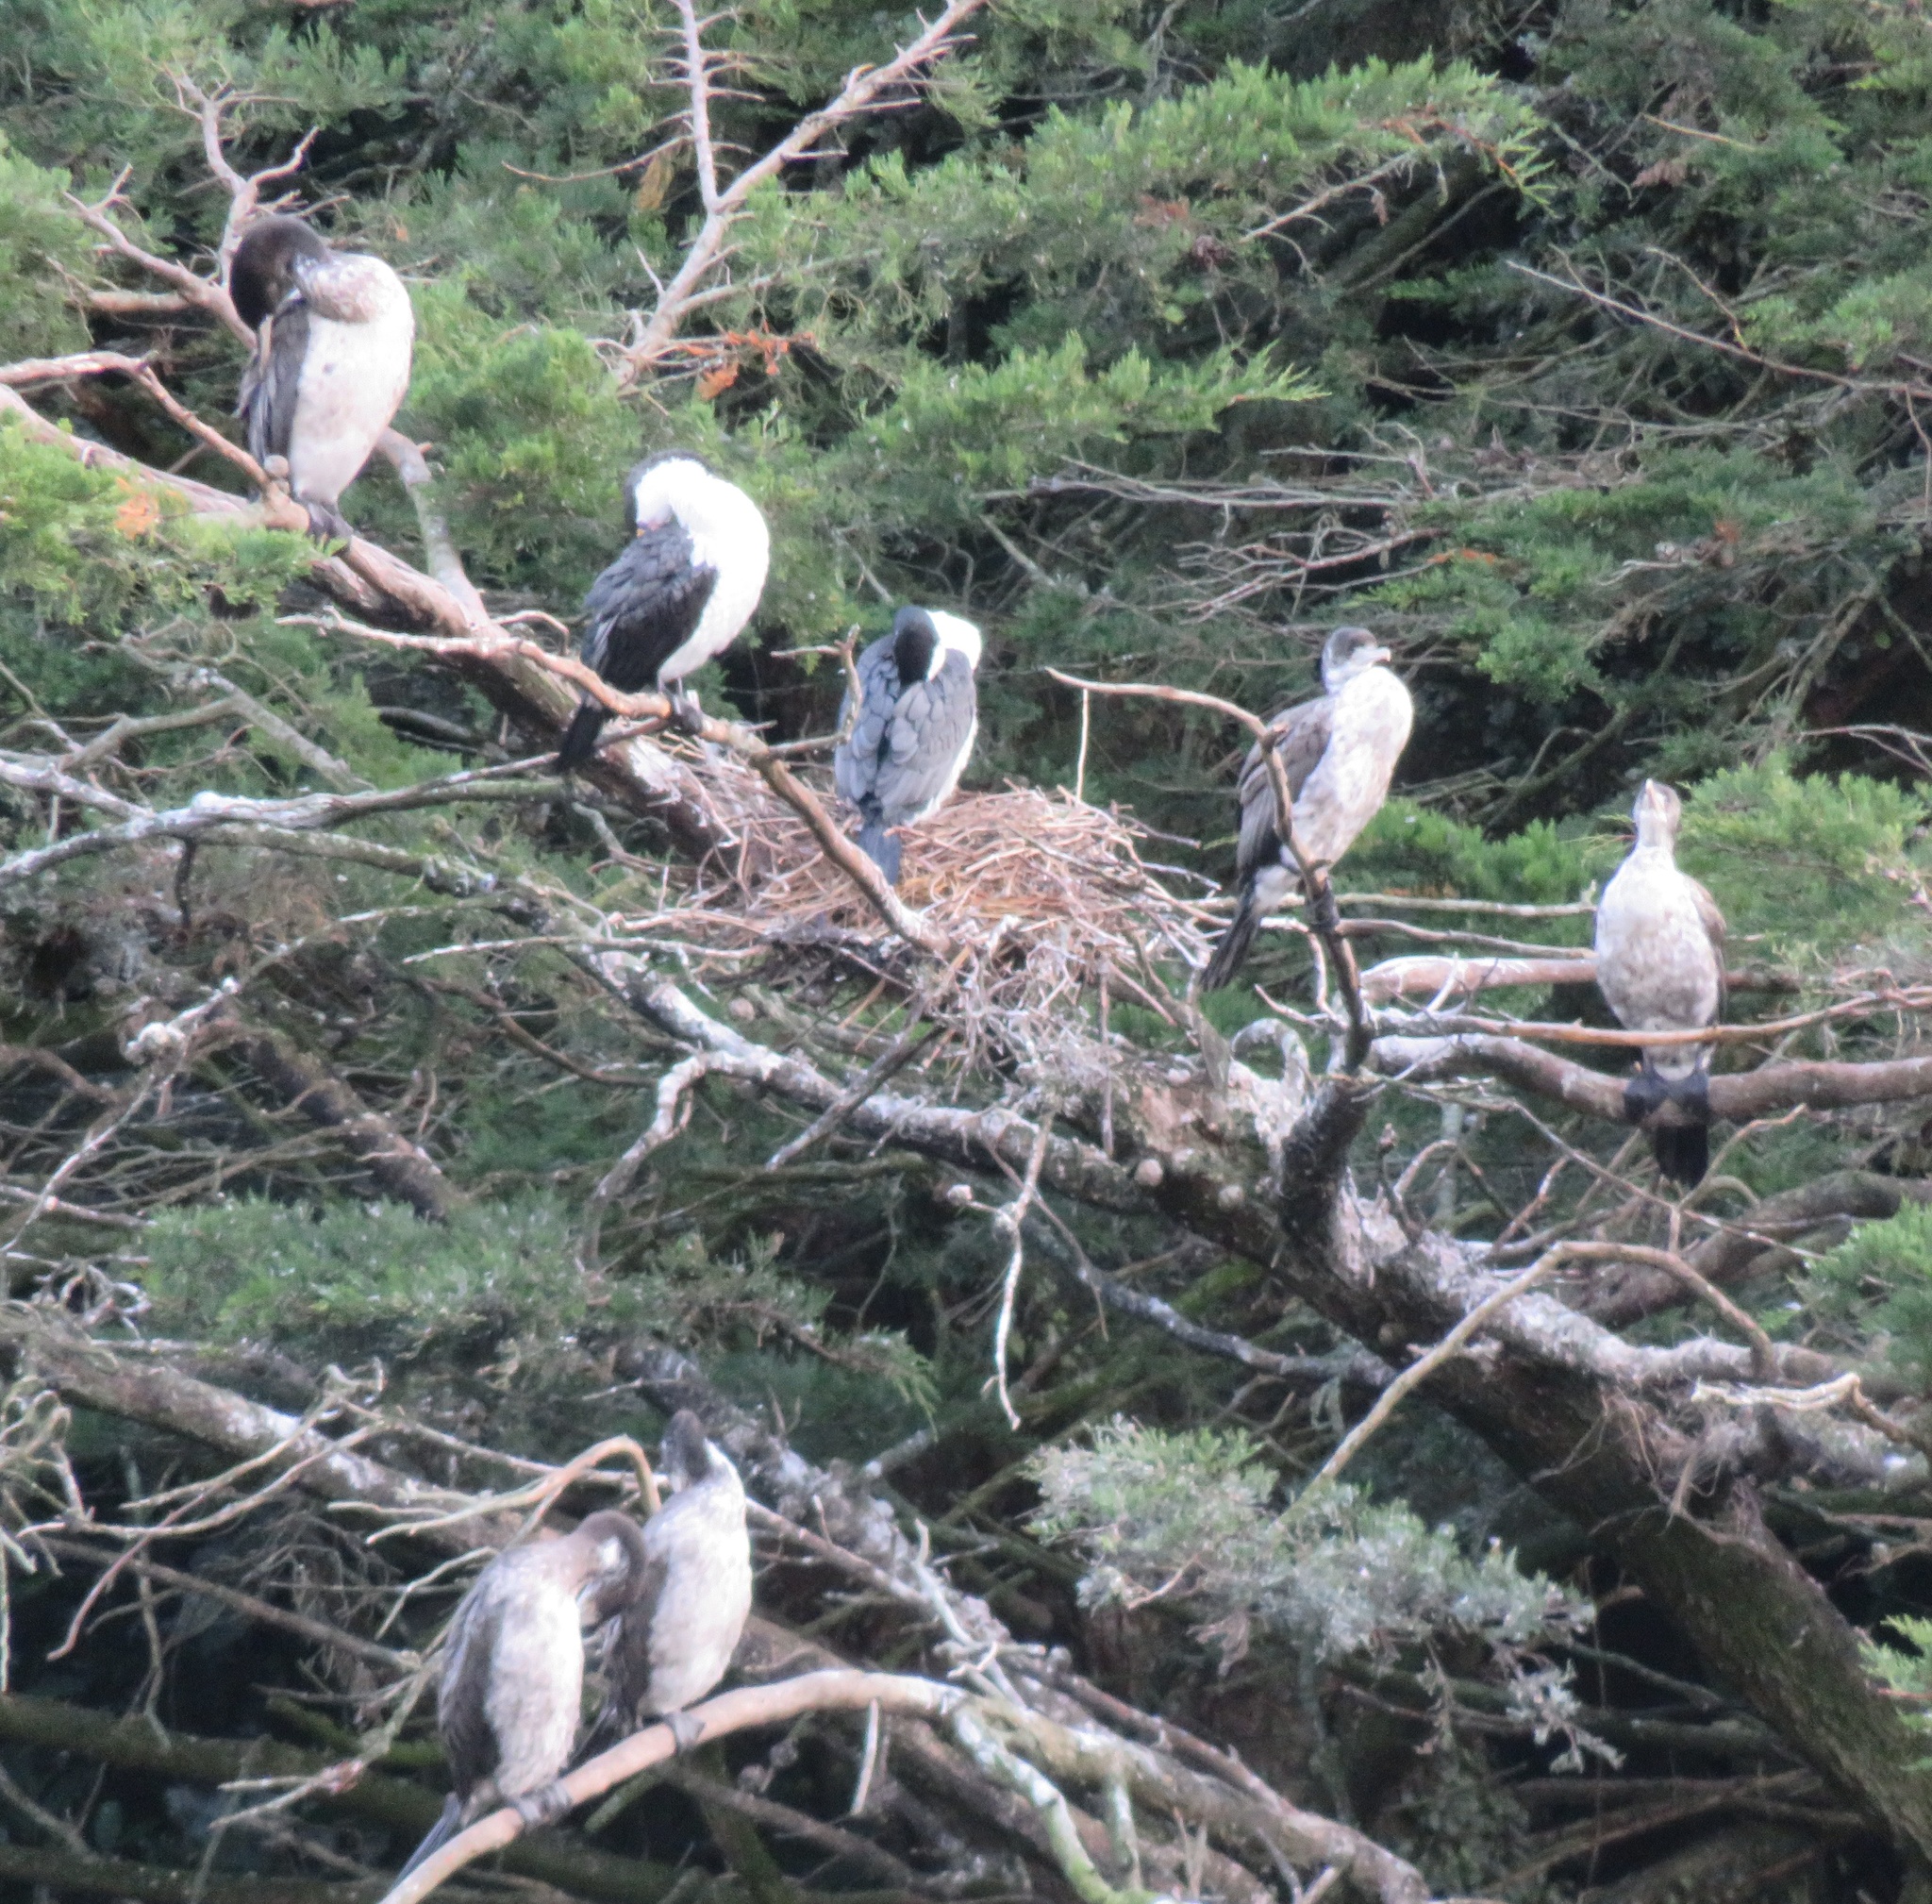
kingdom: Animalia
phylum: Chordata
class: Aves
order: Suliformes
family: Phalacrocoracidae
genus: Phalacrocorax
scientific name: Phalacrocorax varius
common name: Pied cormorant
